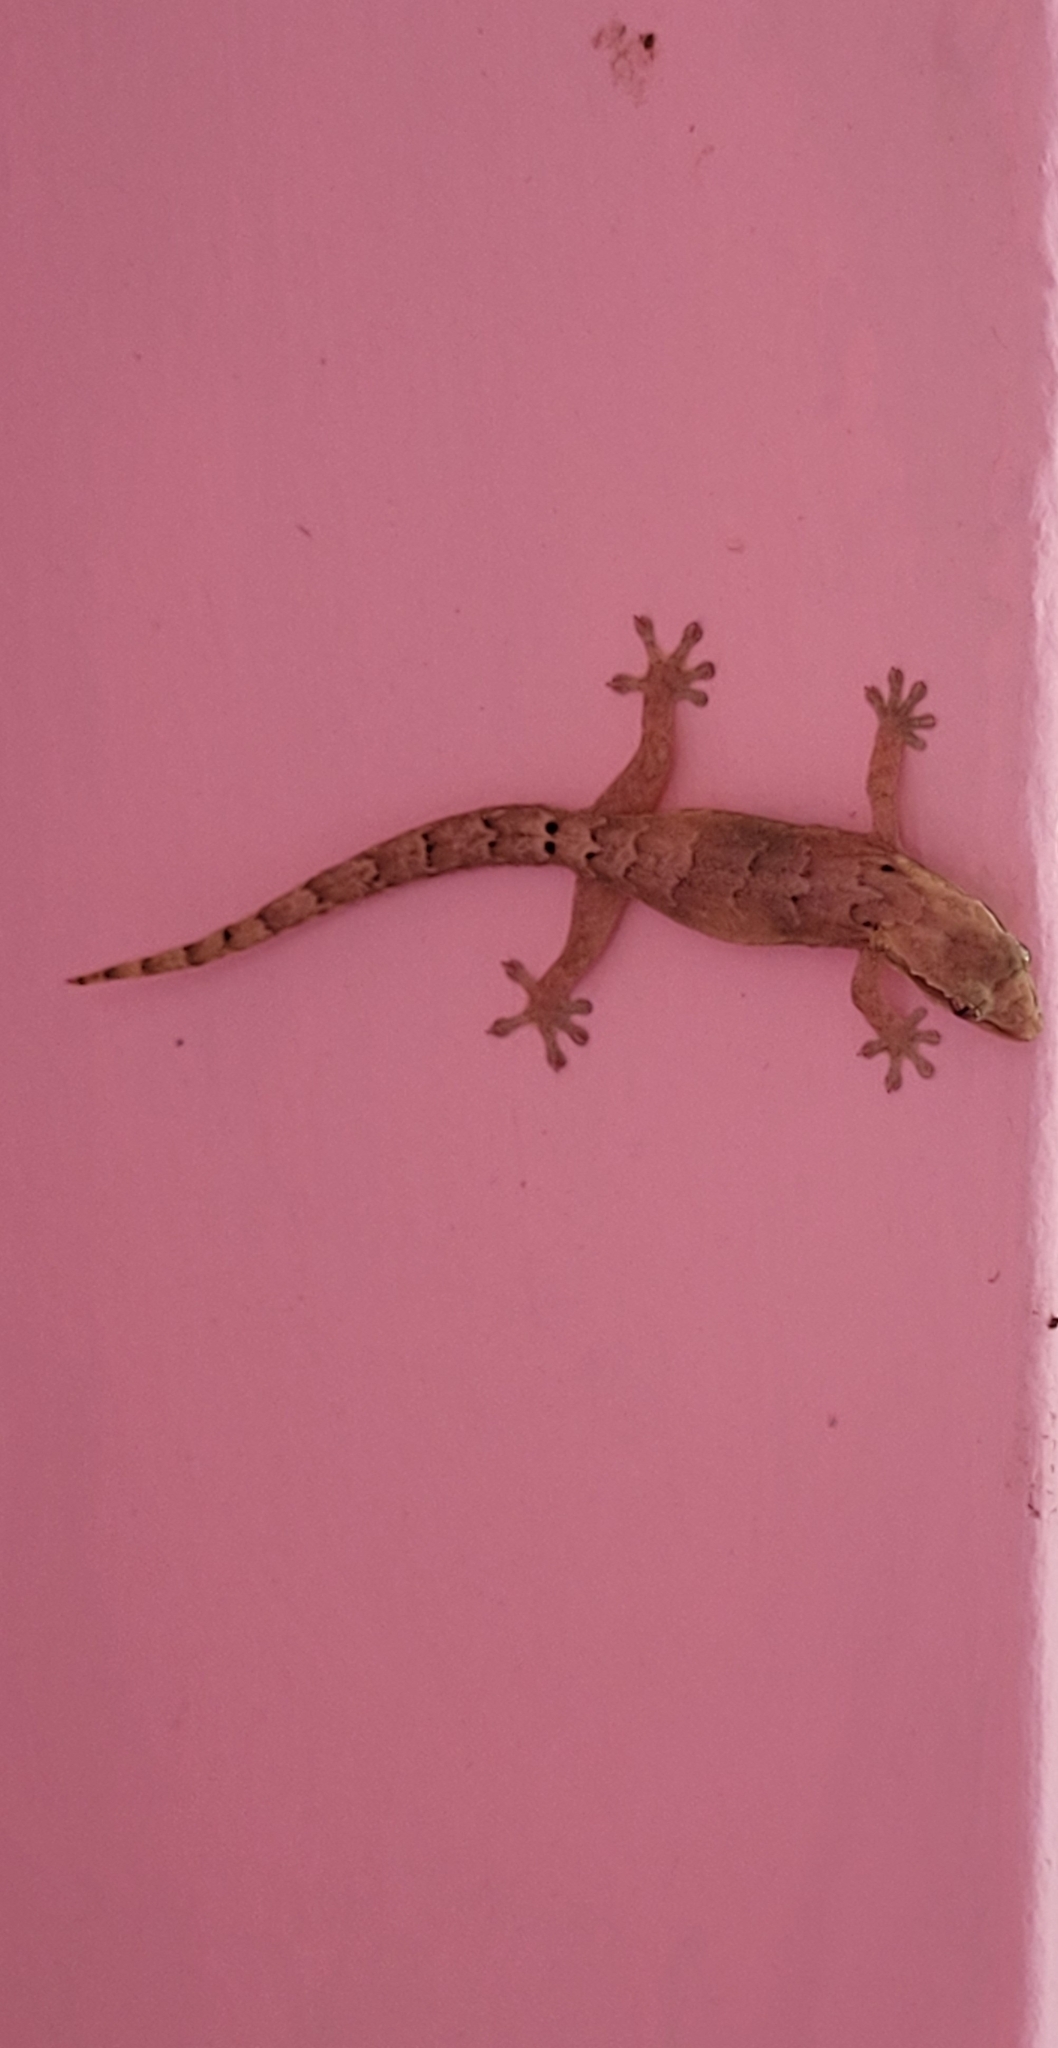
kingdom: Animalia
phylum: Chordata
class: Squamata
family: Gekkonidae
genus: Lepidodactylus
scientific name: Lepidodactylus lugubris
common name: Mourning gecko
